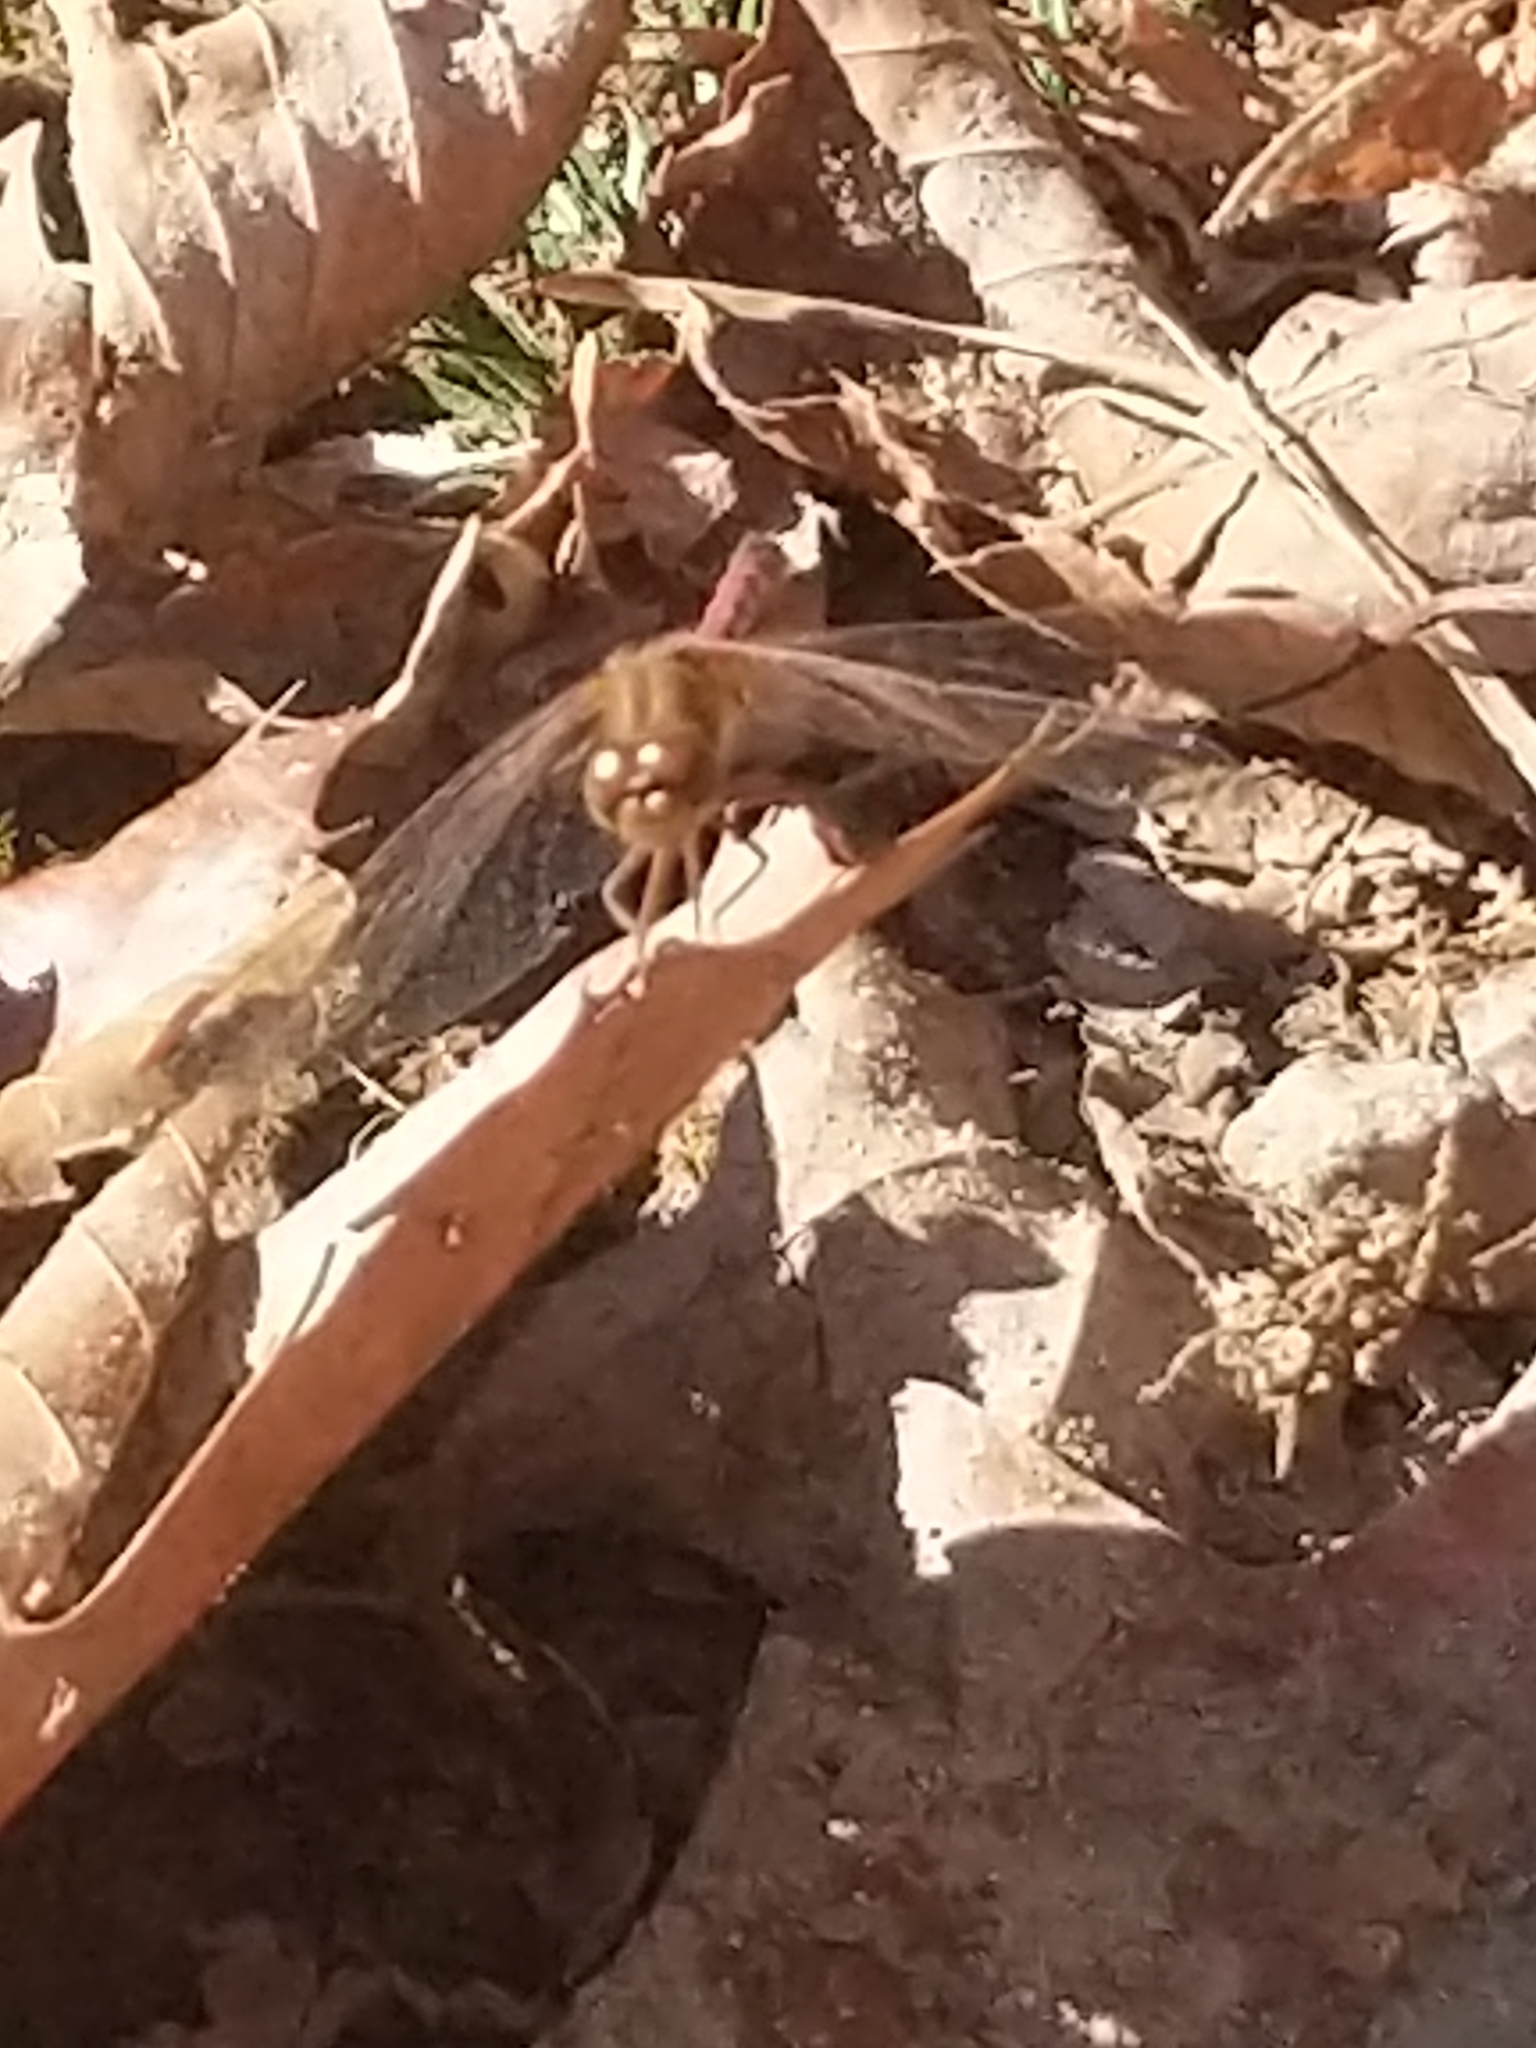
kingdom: Animalia
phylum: Arthropoda
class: Insecta
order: Odonata
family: Libellulidae
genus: Sympetrum
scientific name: Sympetrum vicinum
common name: Autumn meadowhawk
